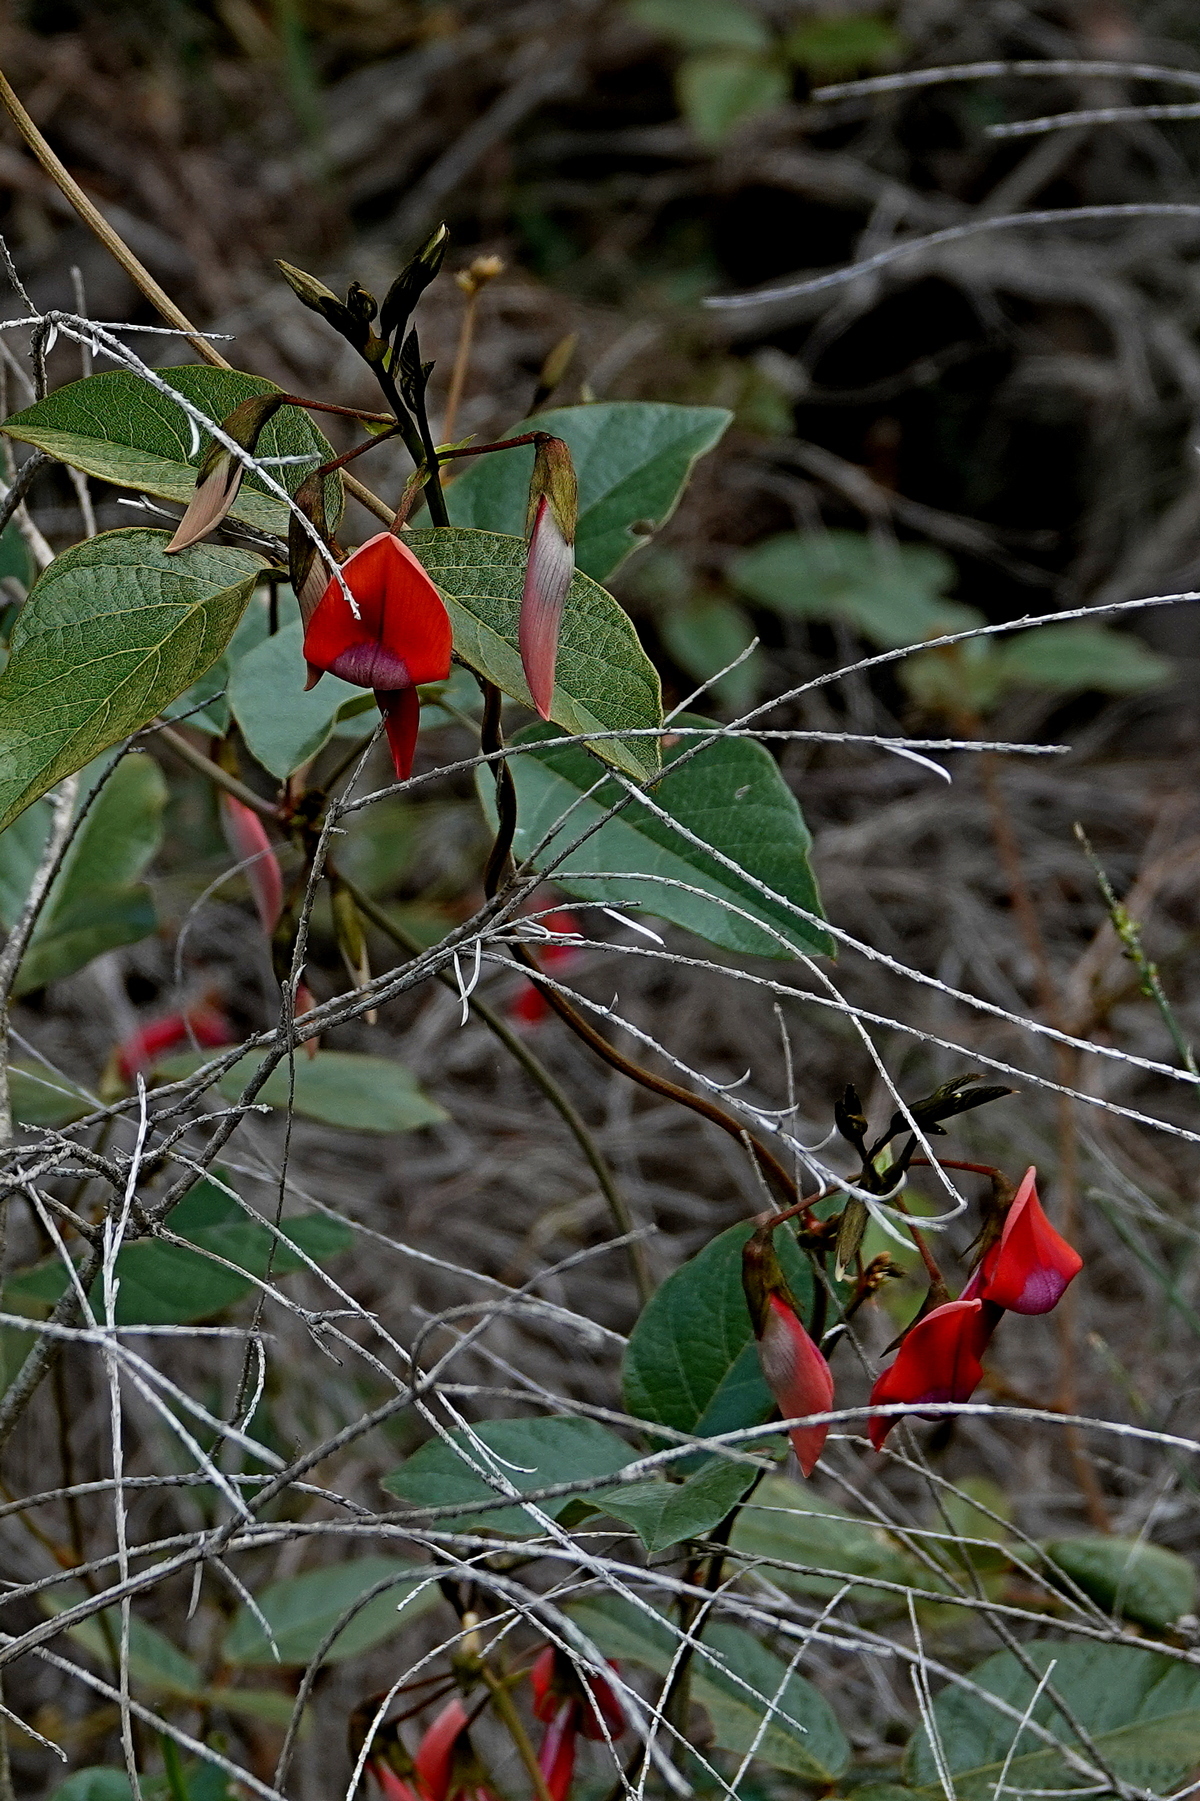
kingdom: Plantae
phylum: Tracheophyta
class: Magnoliopsida
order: Fabales
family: Fabaceae
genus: Kennedia
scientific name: Kennedia rubicunda
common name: Red kennedy-pea
